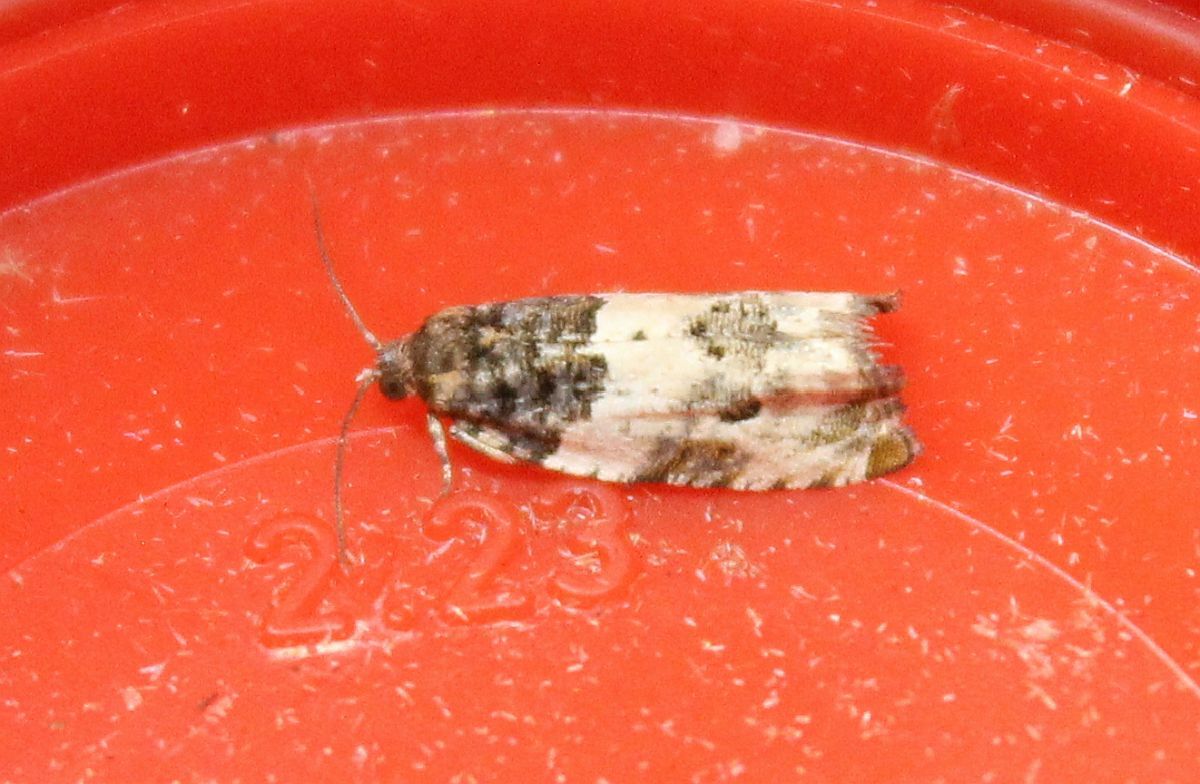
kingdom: Animalia
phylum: Arthropoda
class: Insecta
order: Lepidoptera
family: Tortricidae
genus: Gypsonoma
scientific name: Gypsonoma dealbana
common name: Common cloaked shoot
